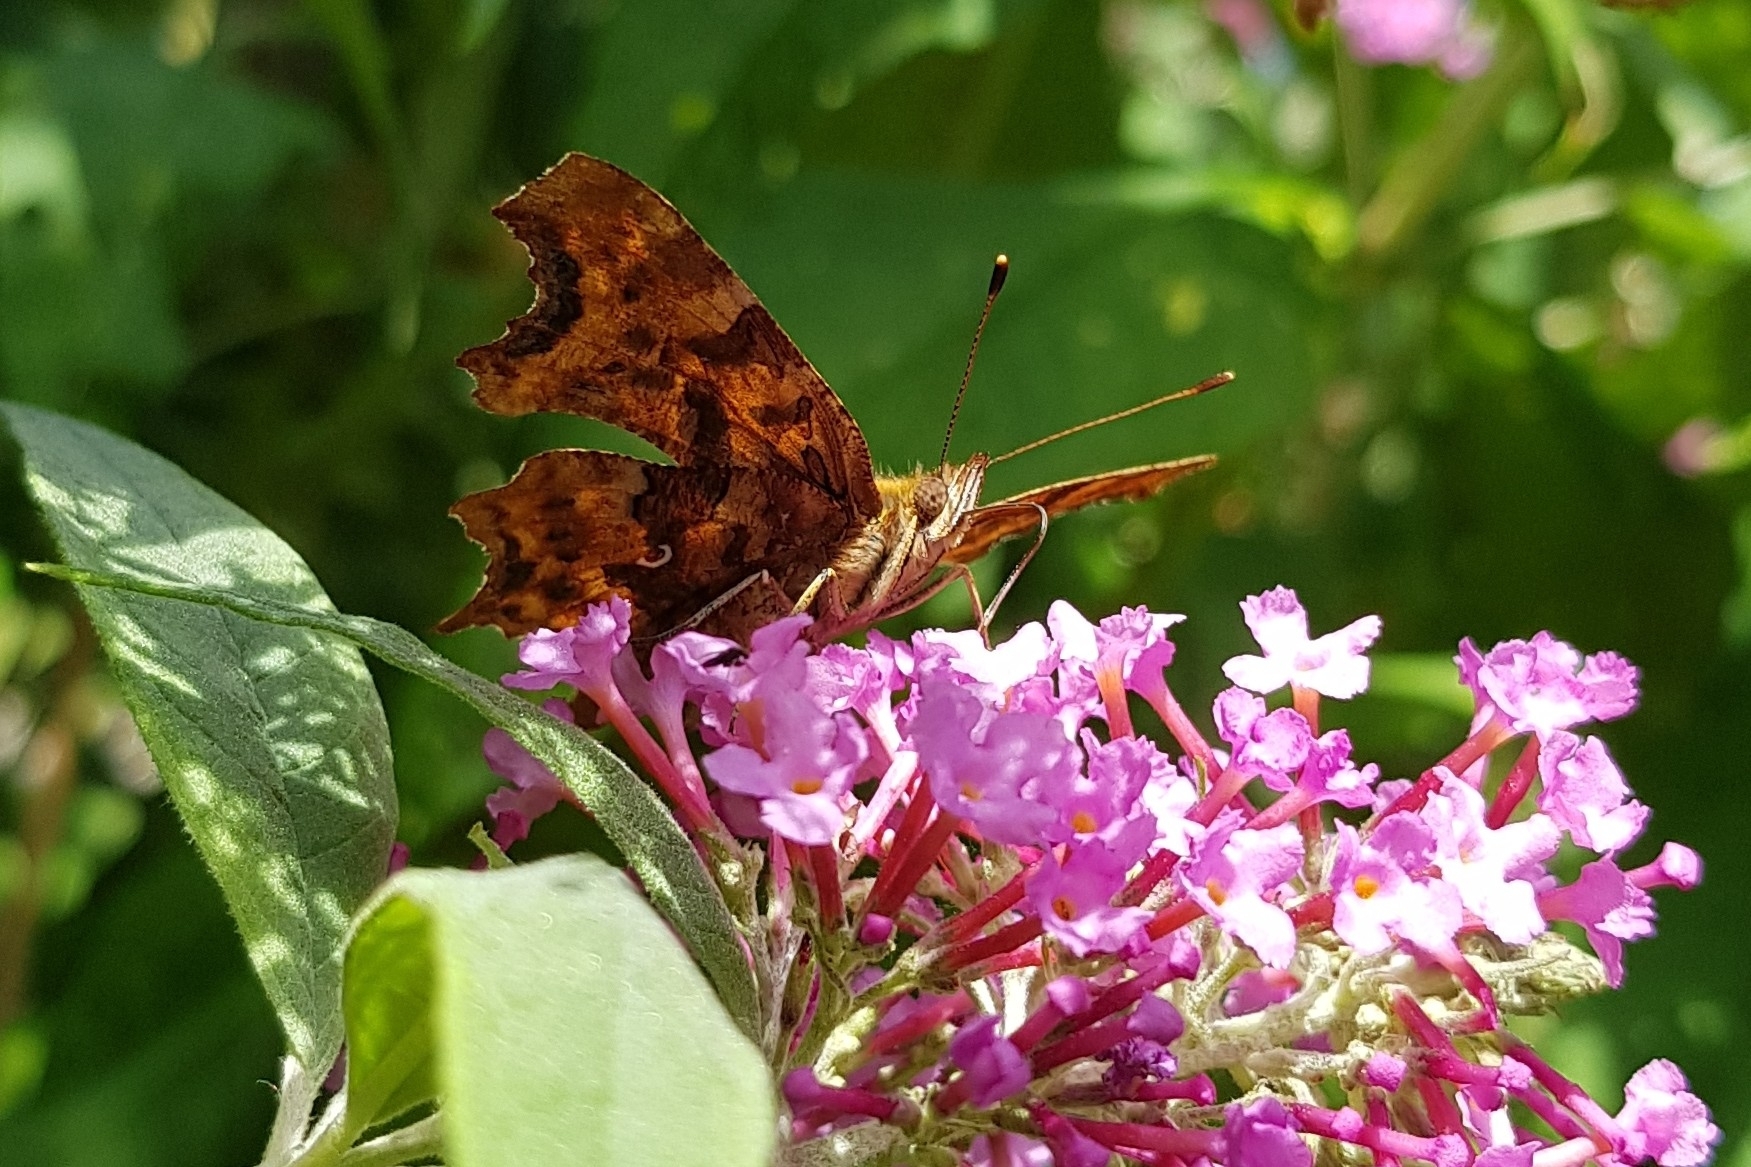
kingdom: Animalia
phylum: Arthropoda
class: Insecta
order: Lepidoptera
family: Nymphalidae
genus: Polygonia
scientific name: Polygonia c-album
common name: Comma
